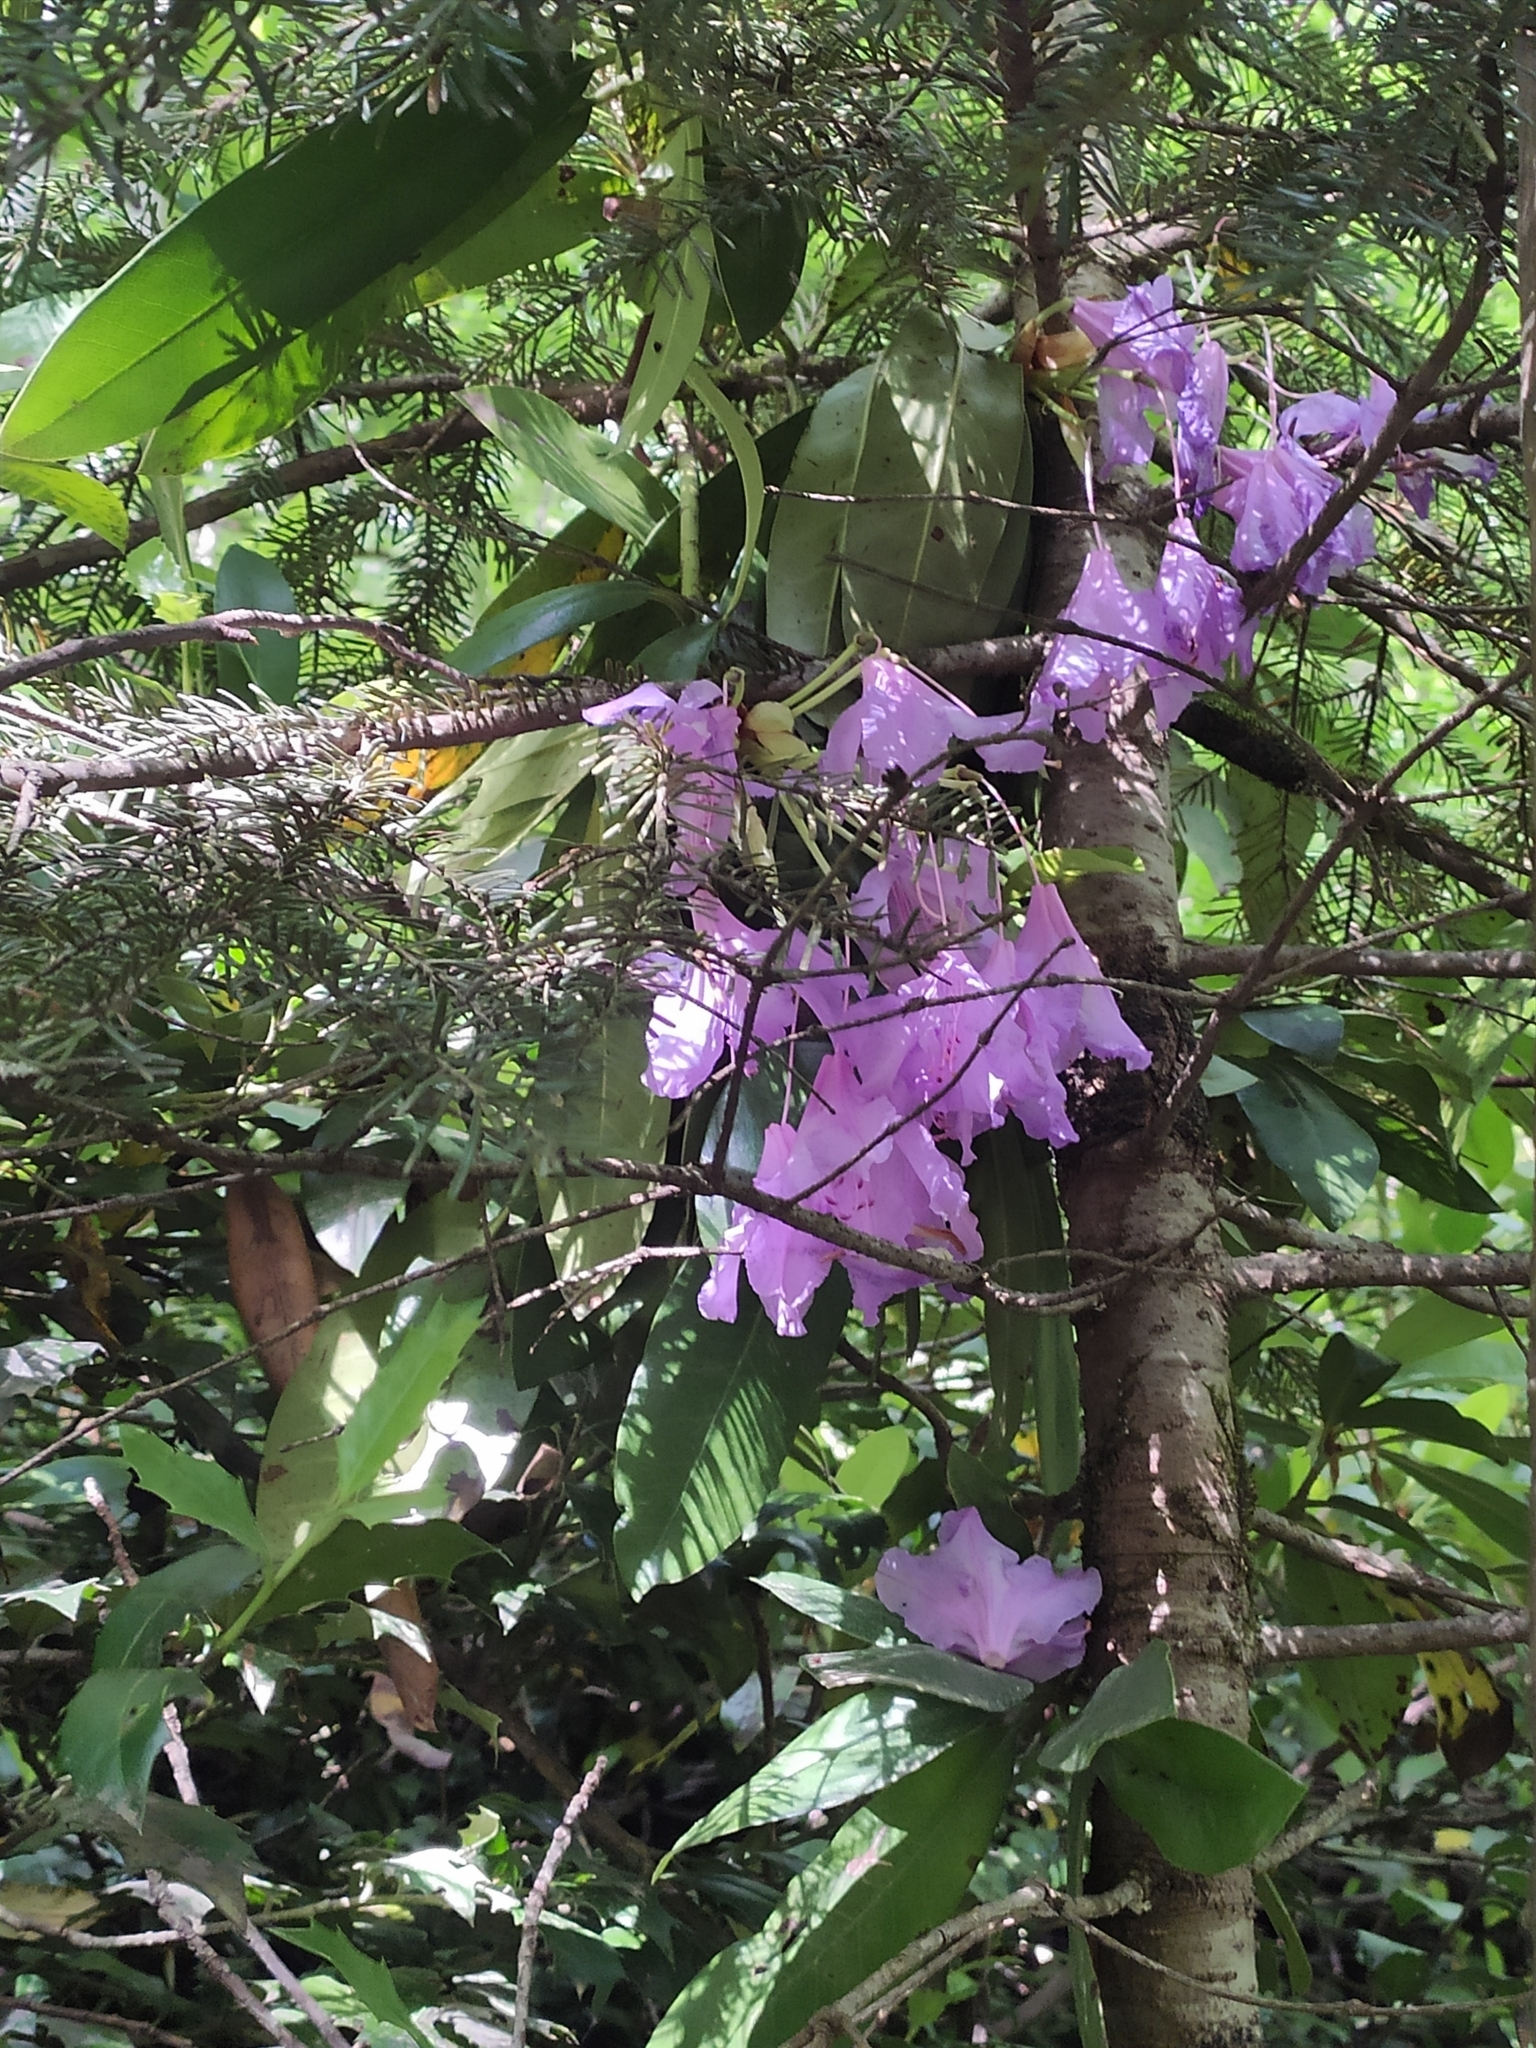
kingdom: Plantae
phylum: Tracheophyta
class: Magnoliopsida
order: Ericales
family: Ericaceae
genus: Rhododendron
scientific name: Rhododendron ponticum
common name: Rhododendron
